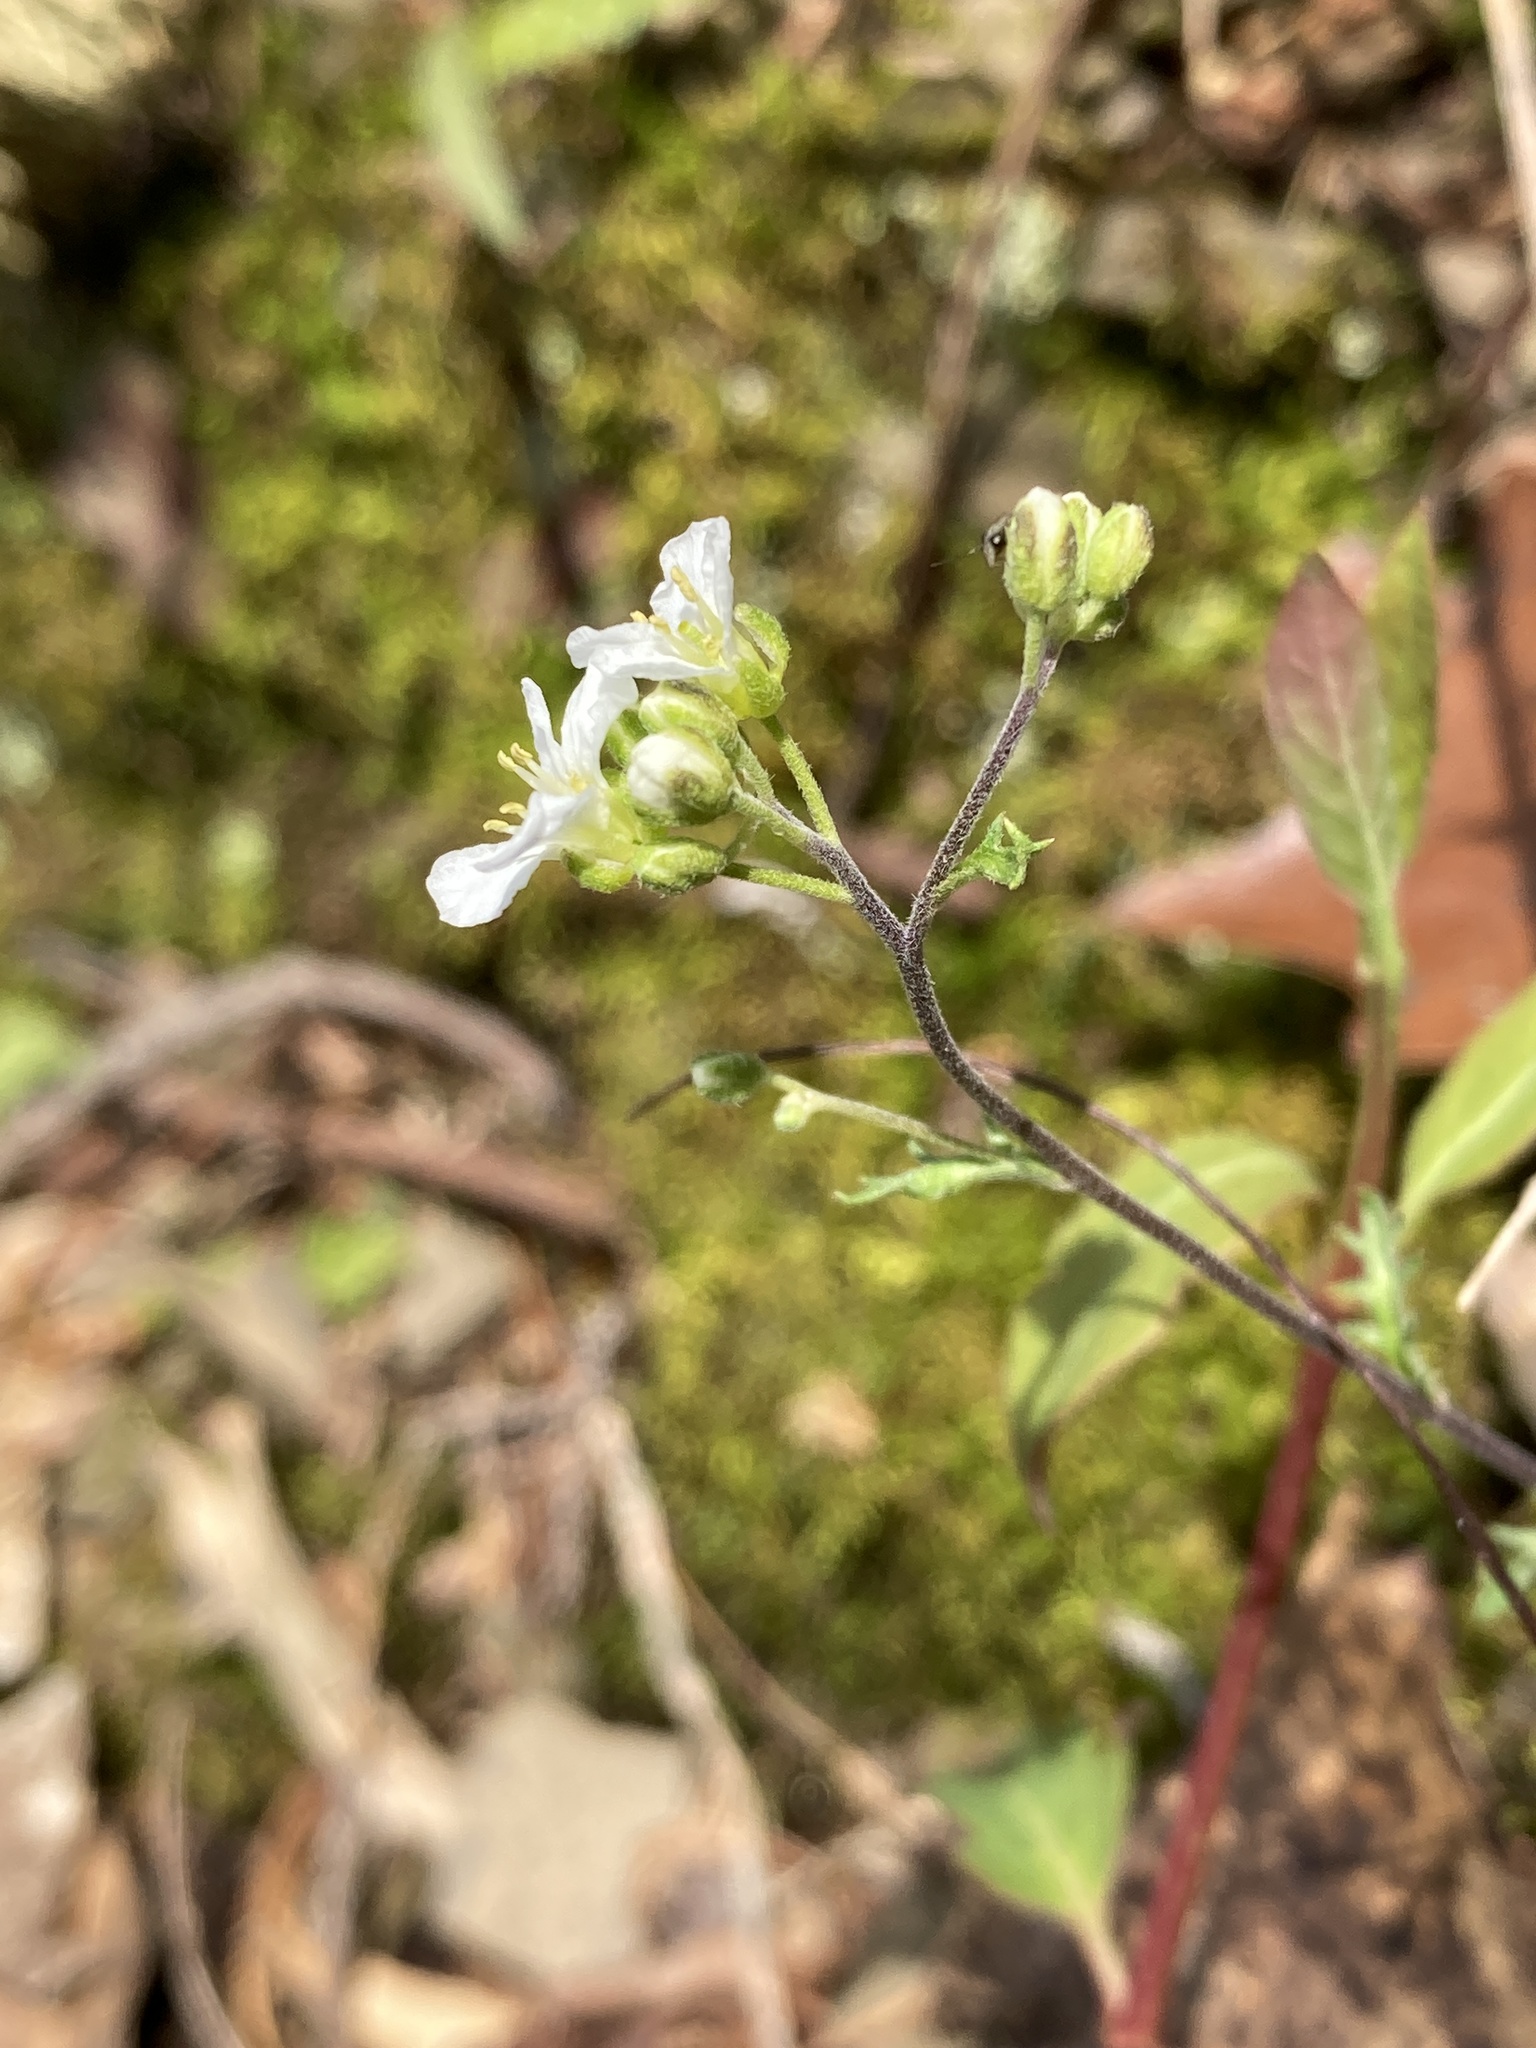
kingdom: Plantae
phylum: Tracheophyta
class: Magnoliopsida
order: Brassicales
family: Brassicaceae
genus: Draba
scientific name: Draba ramosissima
